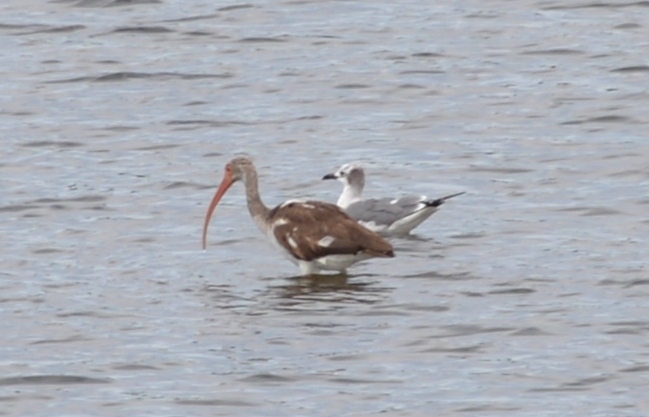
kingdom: Animalia
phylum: Chordata
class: Aves
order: Pelecaniformes
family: Threskiornithidae
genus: Eudocimus
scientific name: Eudocimus albus
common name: White ibis
